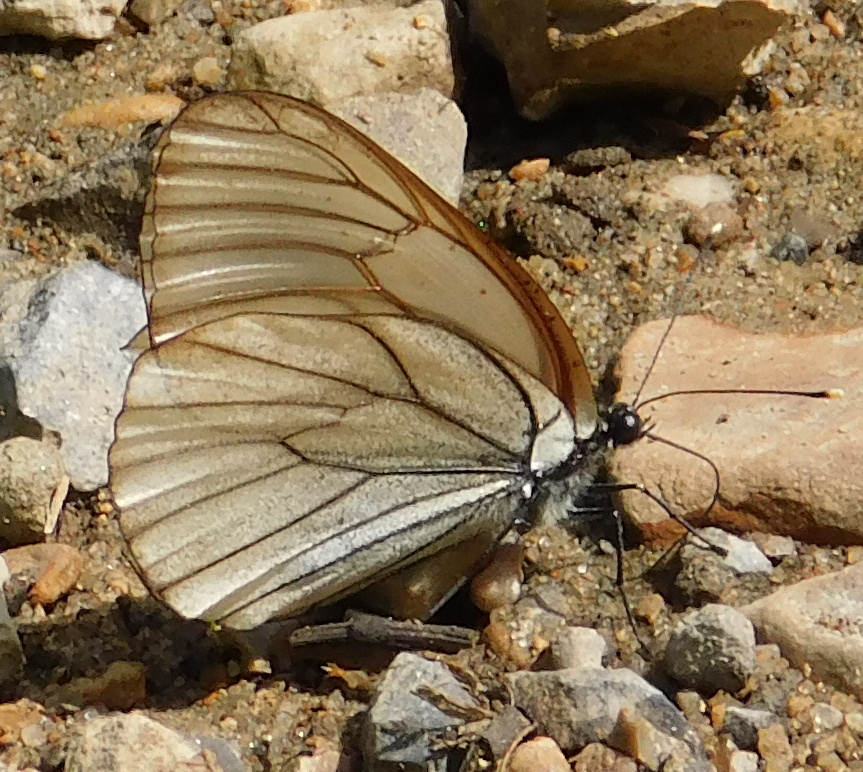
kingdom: Animalia
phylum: Arthropoda
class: Insecta
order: Lepidoptera
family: Pieridae
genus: Aporia
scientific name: Aporia crataegi
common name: Black-veined white
